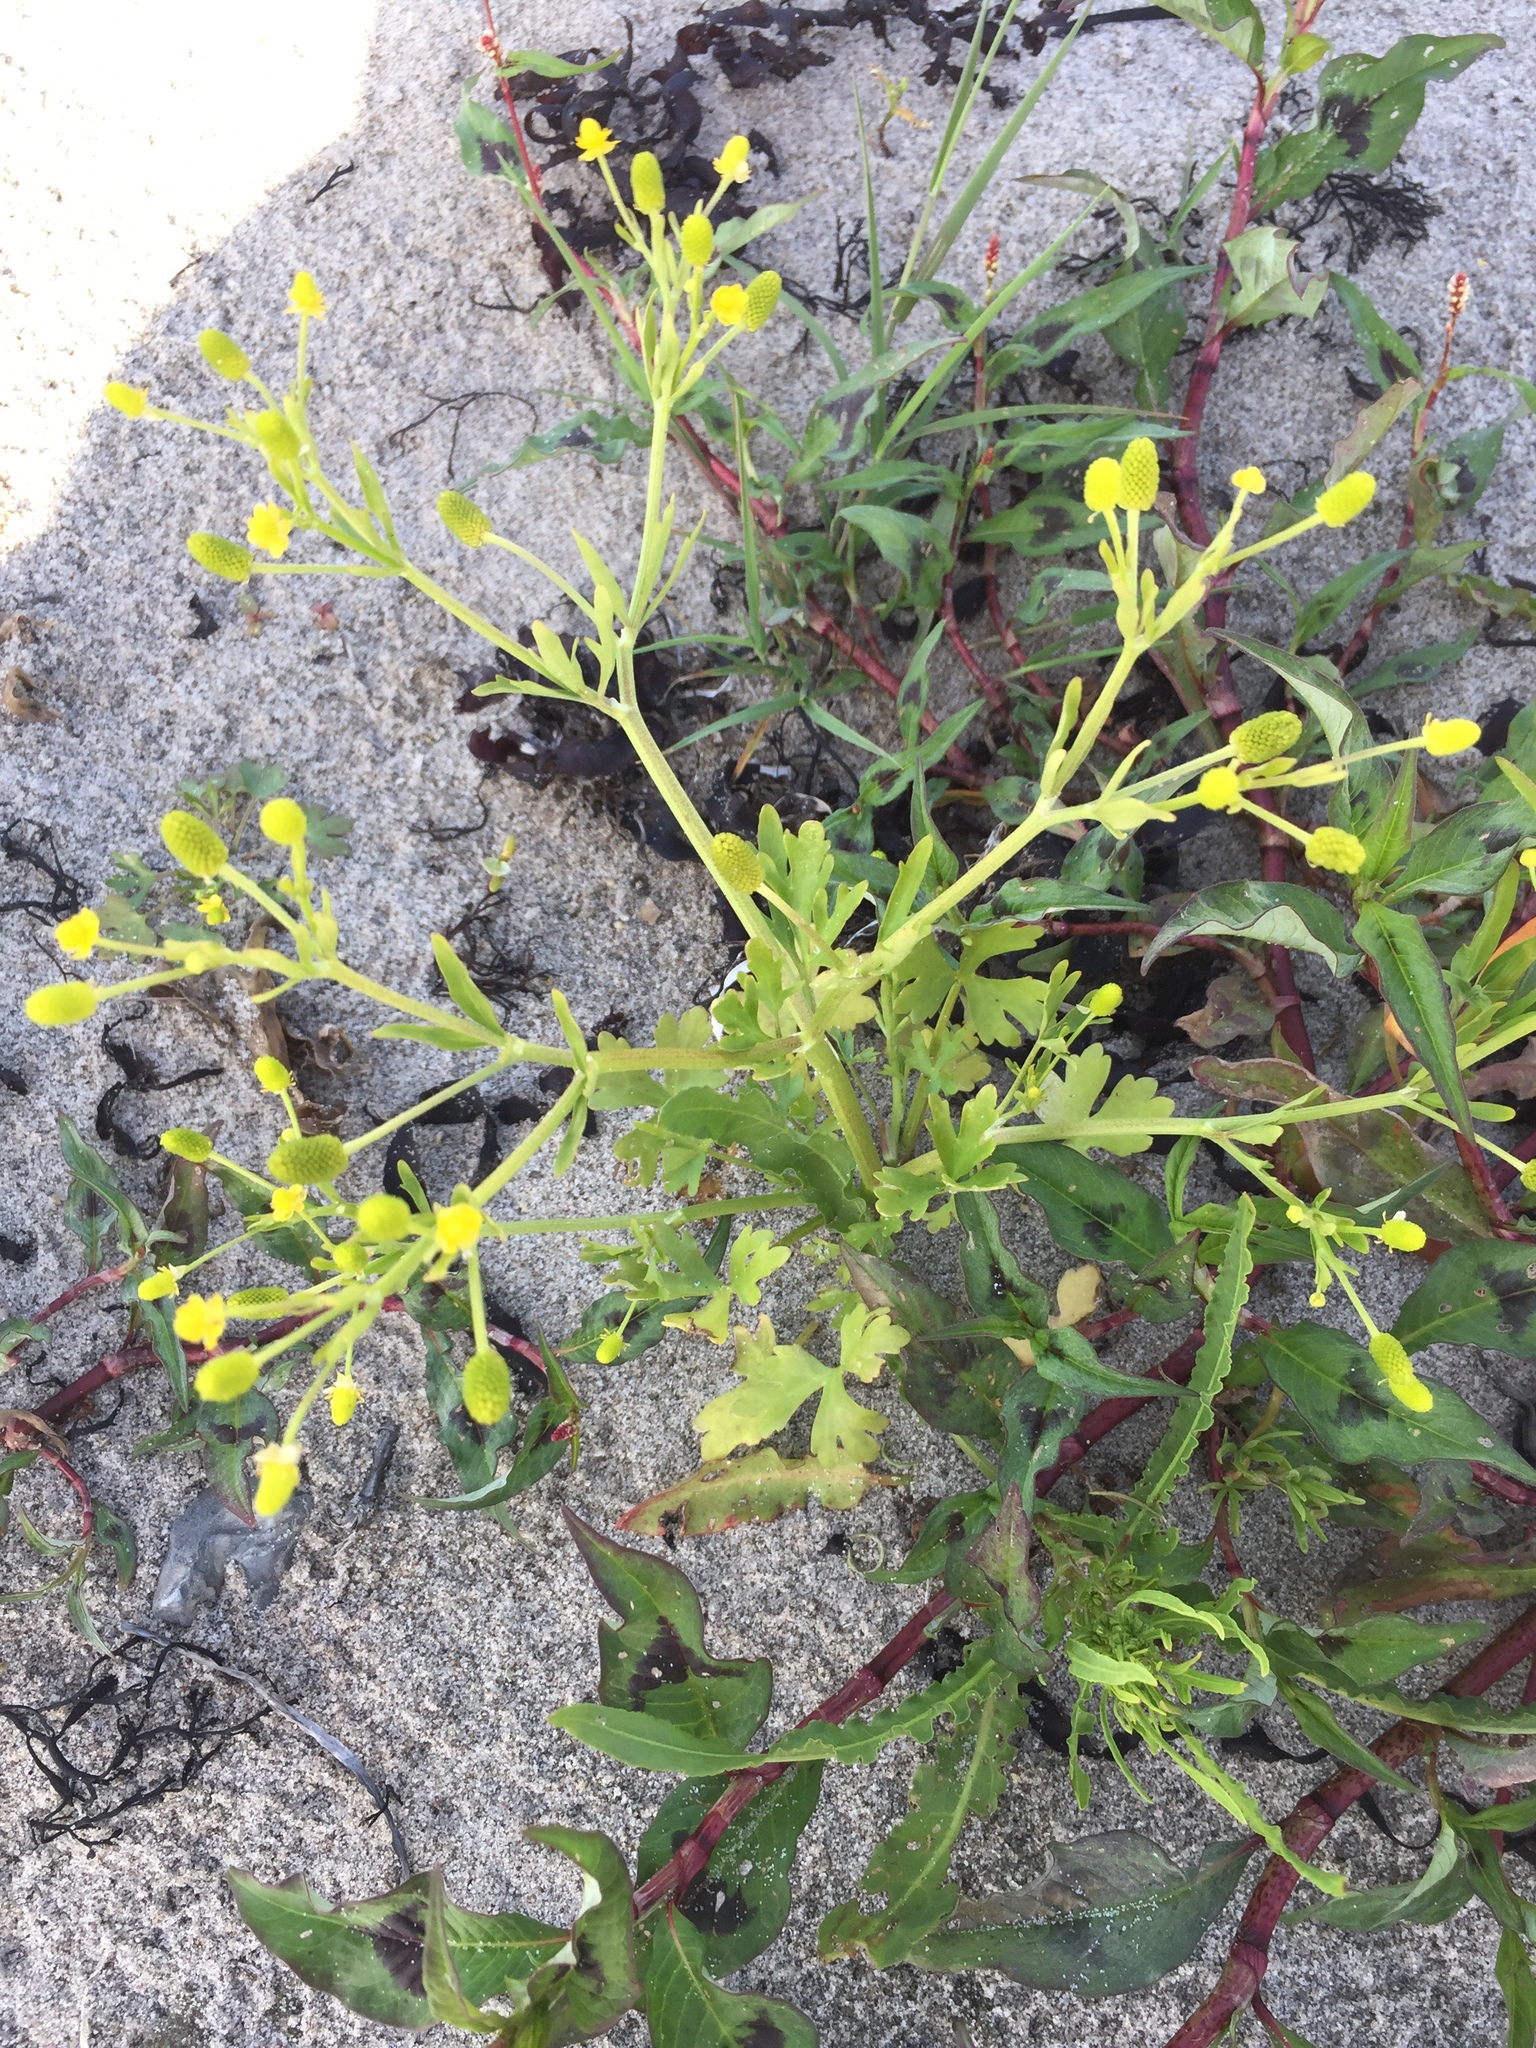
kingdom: Plantae
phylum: Tracheophyta
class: Magnoliopsida
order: Ranunculales
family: Ranunculaceae
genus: Ranunculus
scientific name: Ranunculus sceleratus
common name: Celery-leaved buttercup
